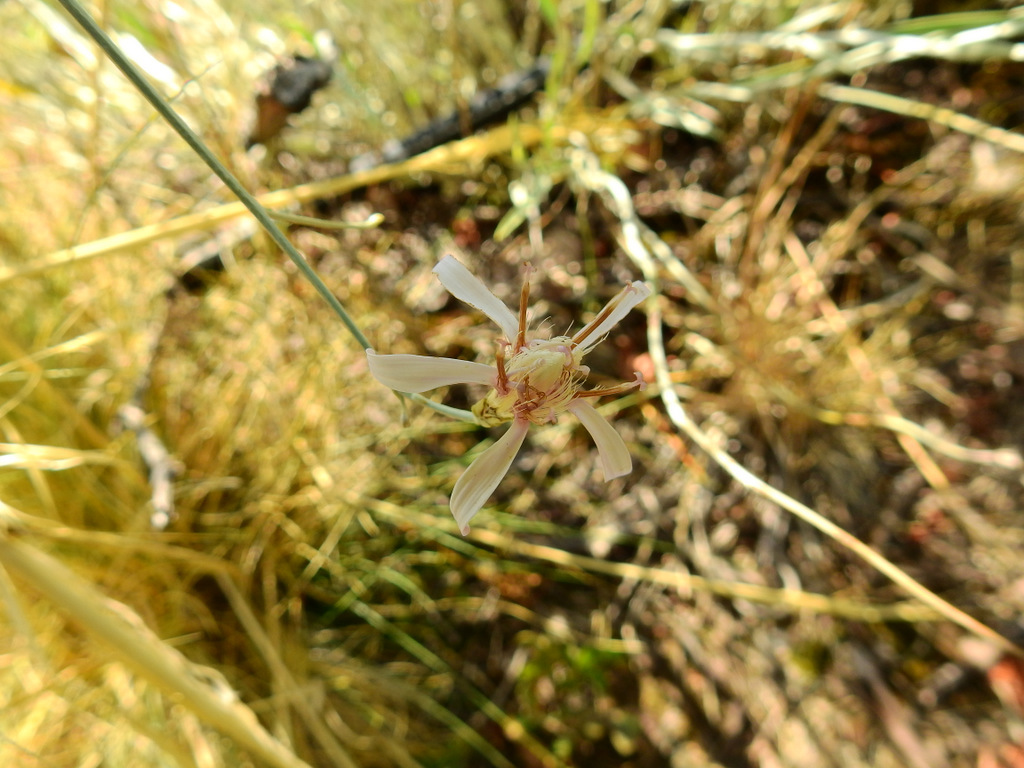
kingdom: Plantae
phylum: Tracheophyta
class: Magnoliopsida
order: Asterales
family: Asteraceae
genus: Hyalis
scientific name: Hyalis argentea
